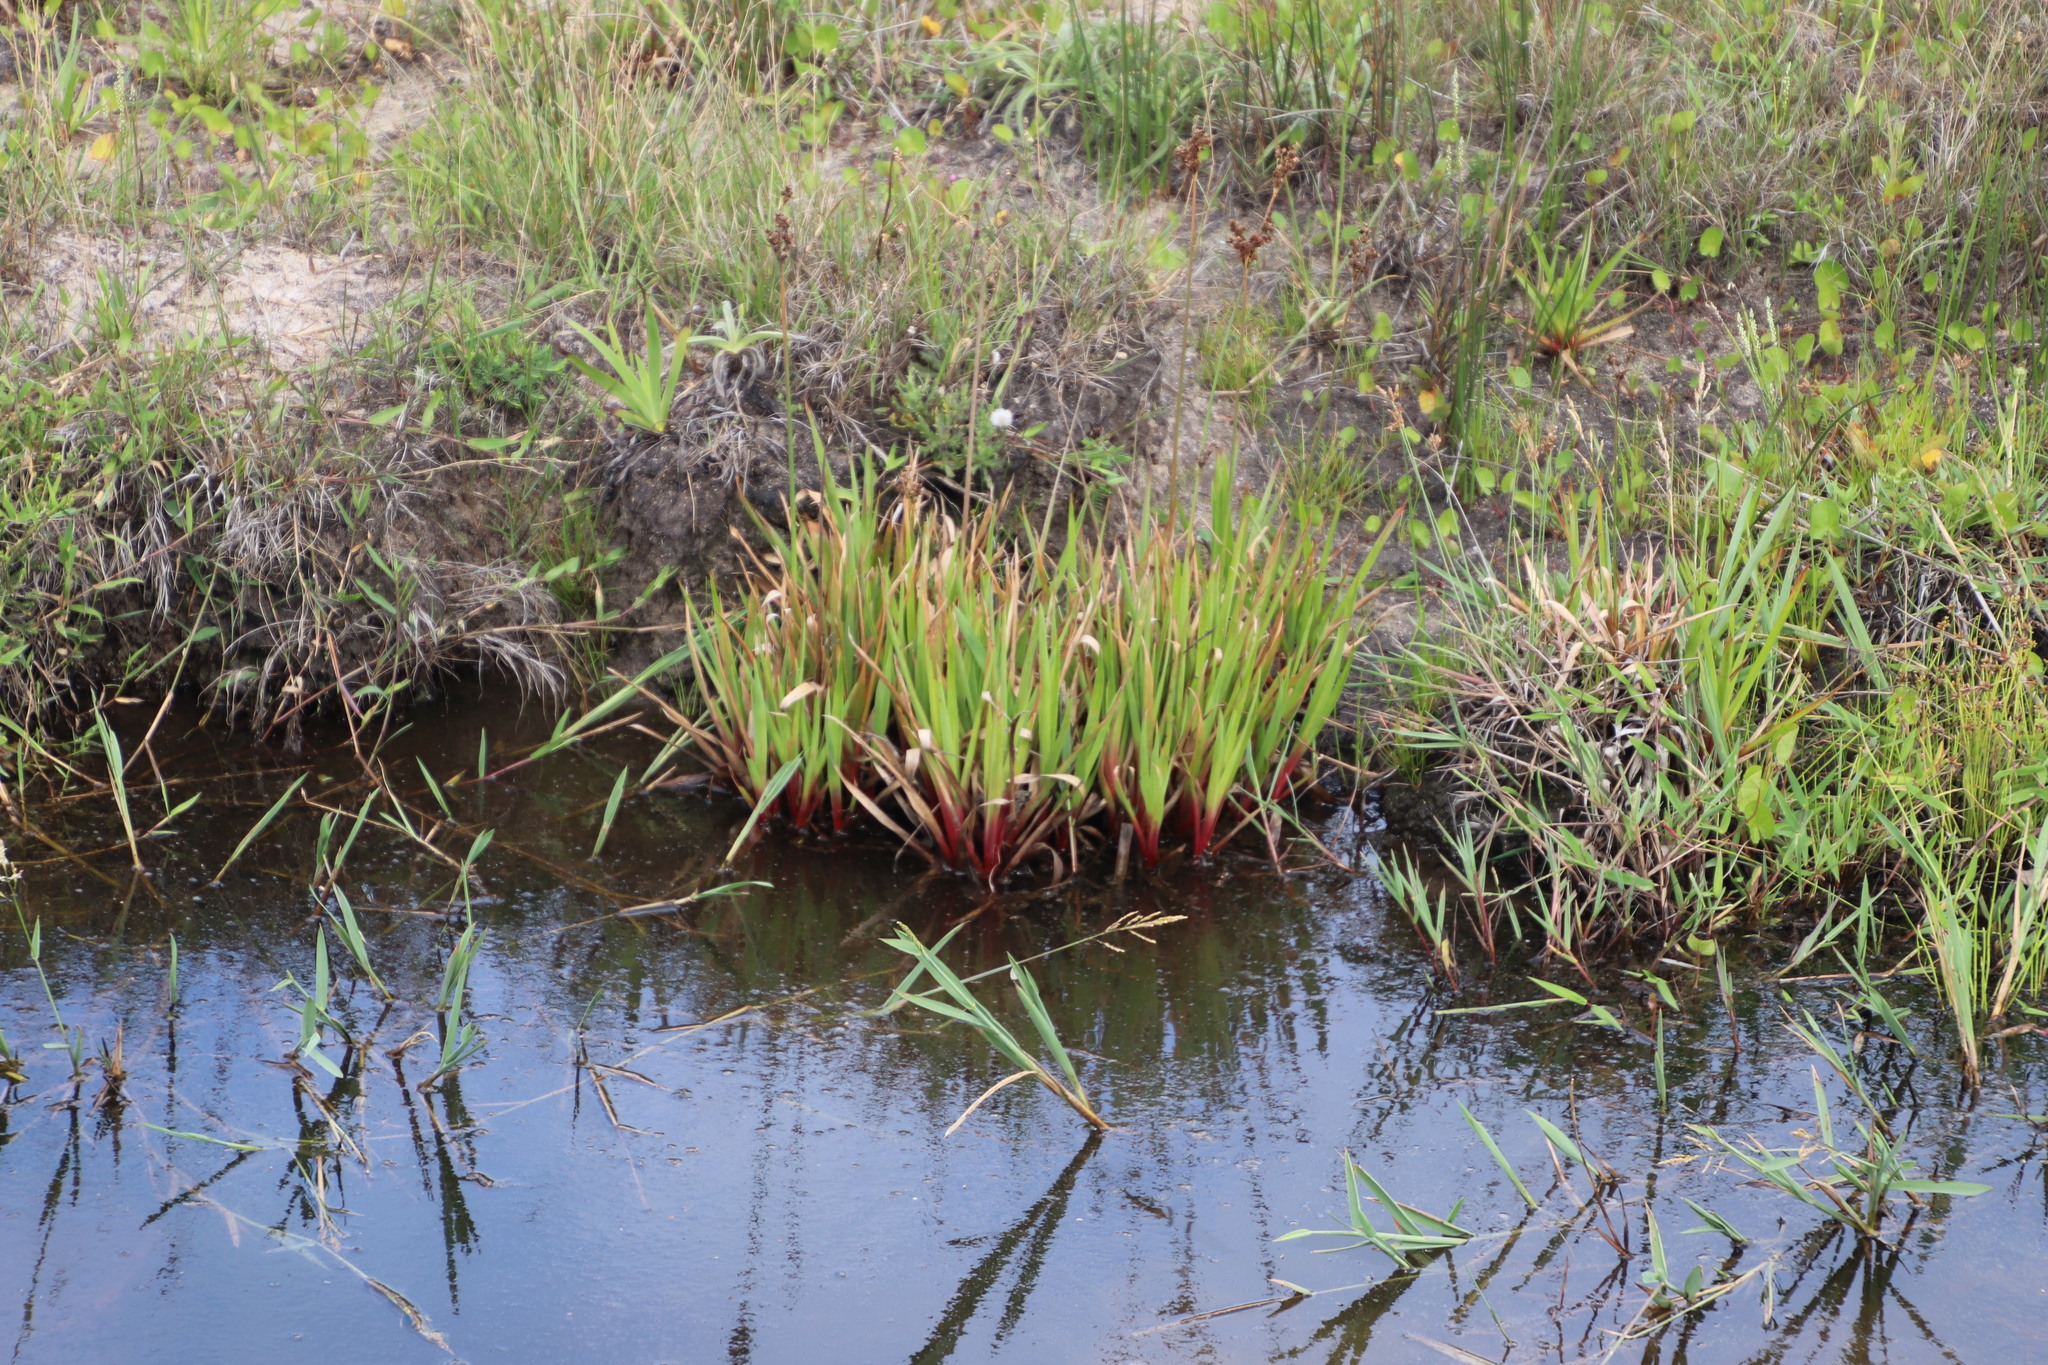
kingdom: Plantae
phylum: Tracheophyta
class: Liliopsida
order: Poales
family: Juncaceae
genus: Juncus
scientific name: Juncus lomatophyllus
